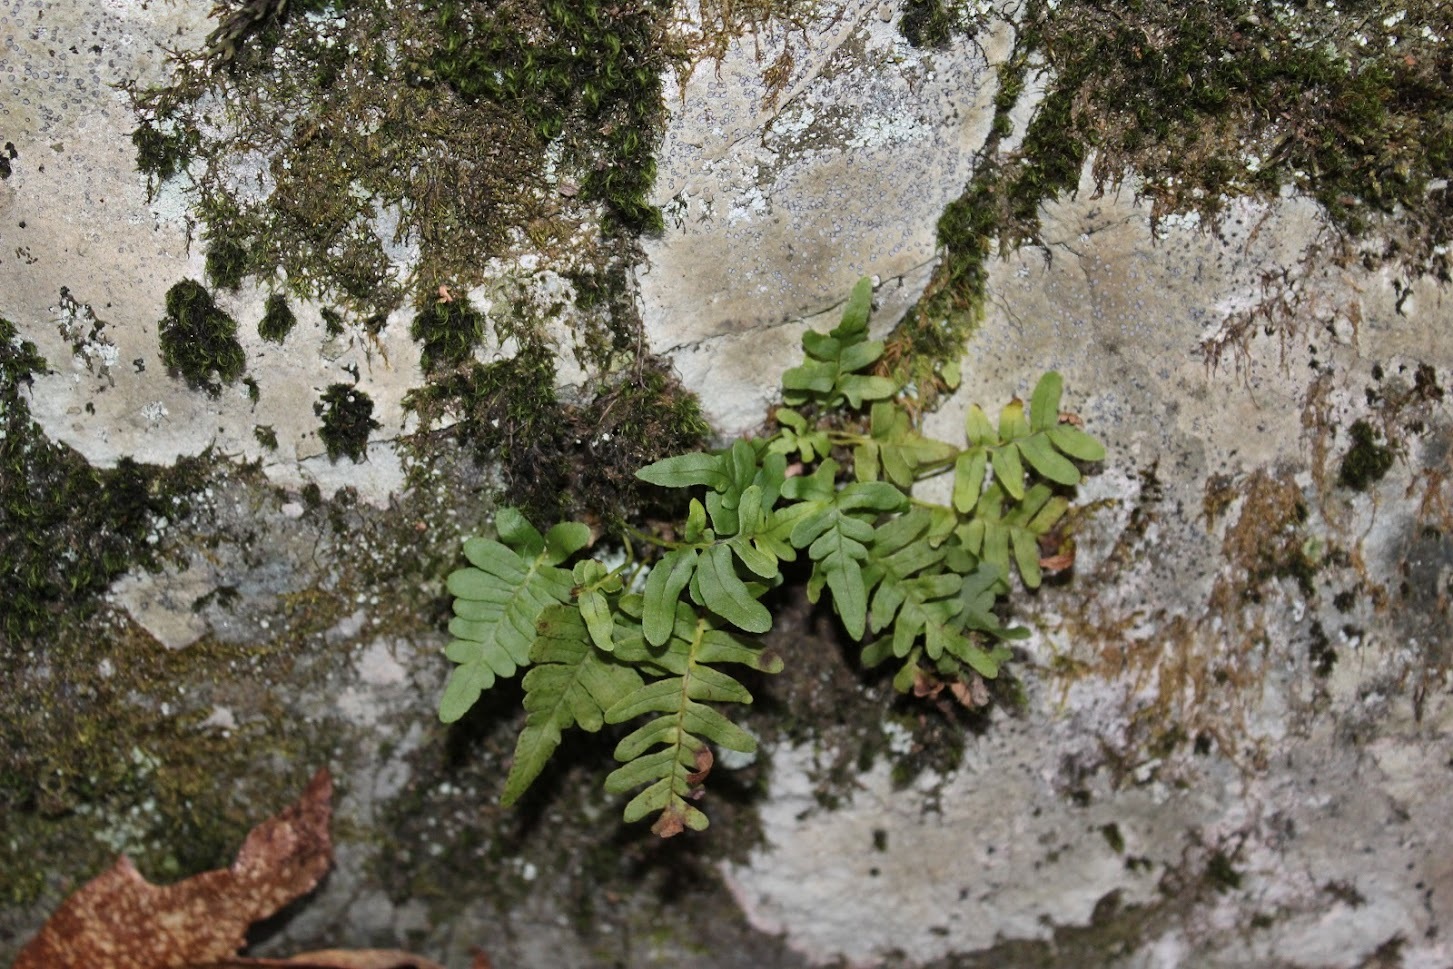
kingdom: Plantae
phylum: Tracheophyta
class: Polypodiopsida
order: Polypodiales
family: Polypodiaceae
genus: Polypodium
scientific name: Polypodium virginianum
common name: American wall fern
